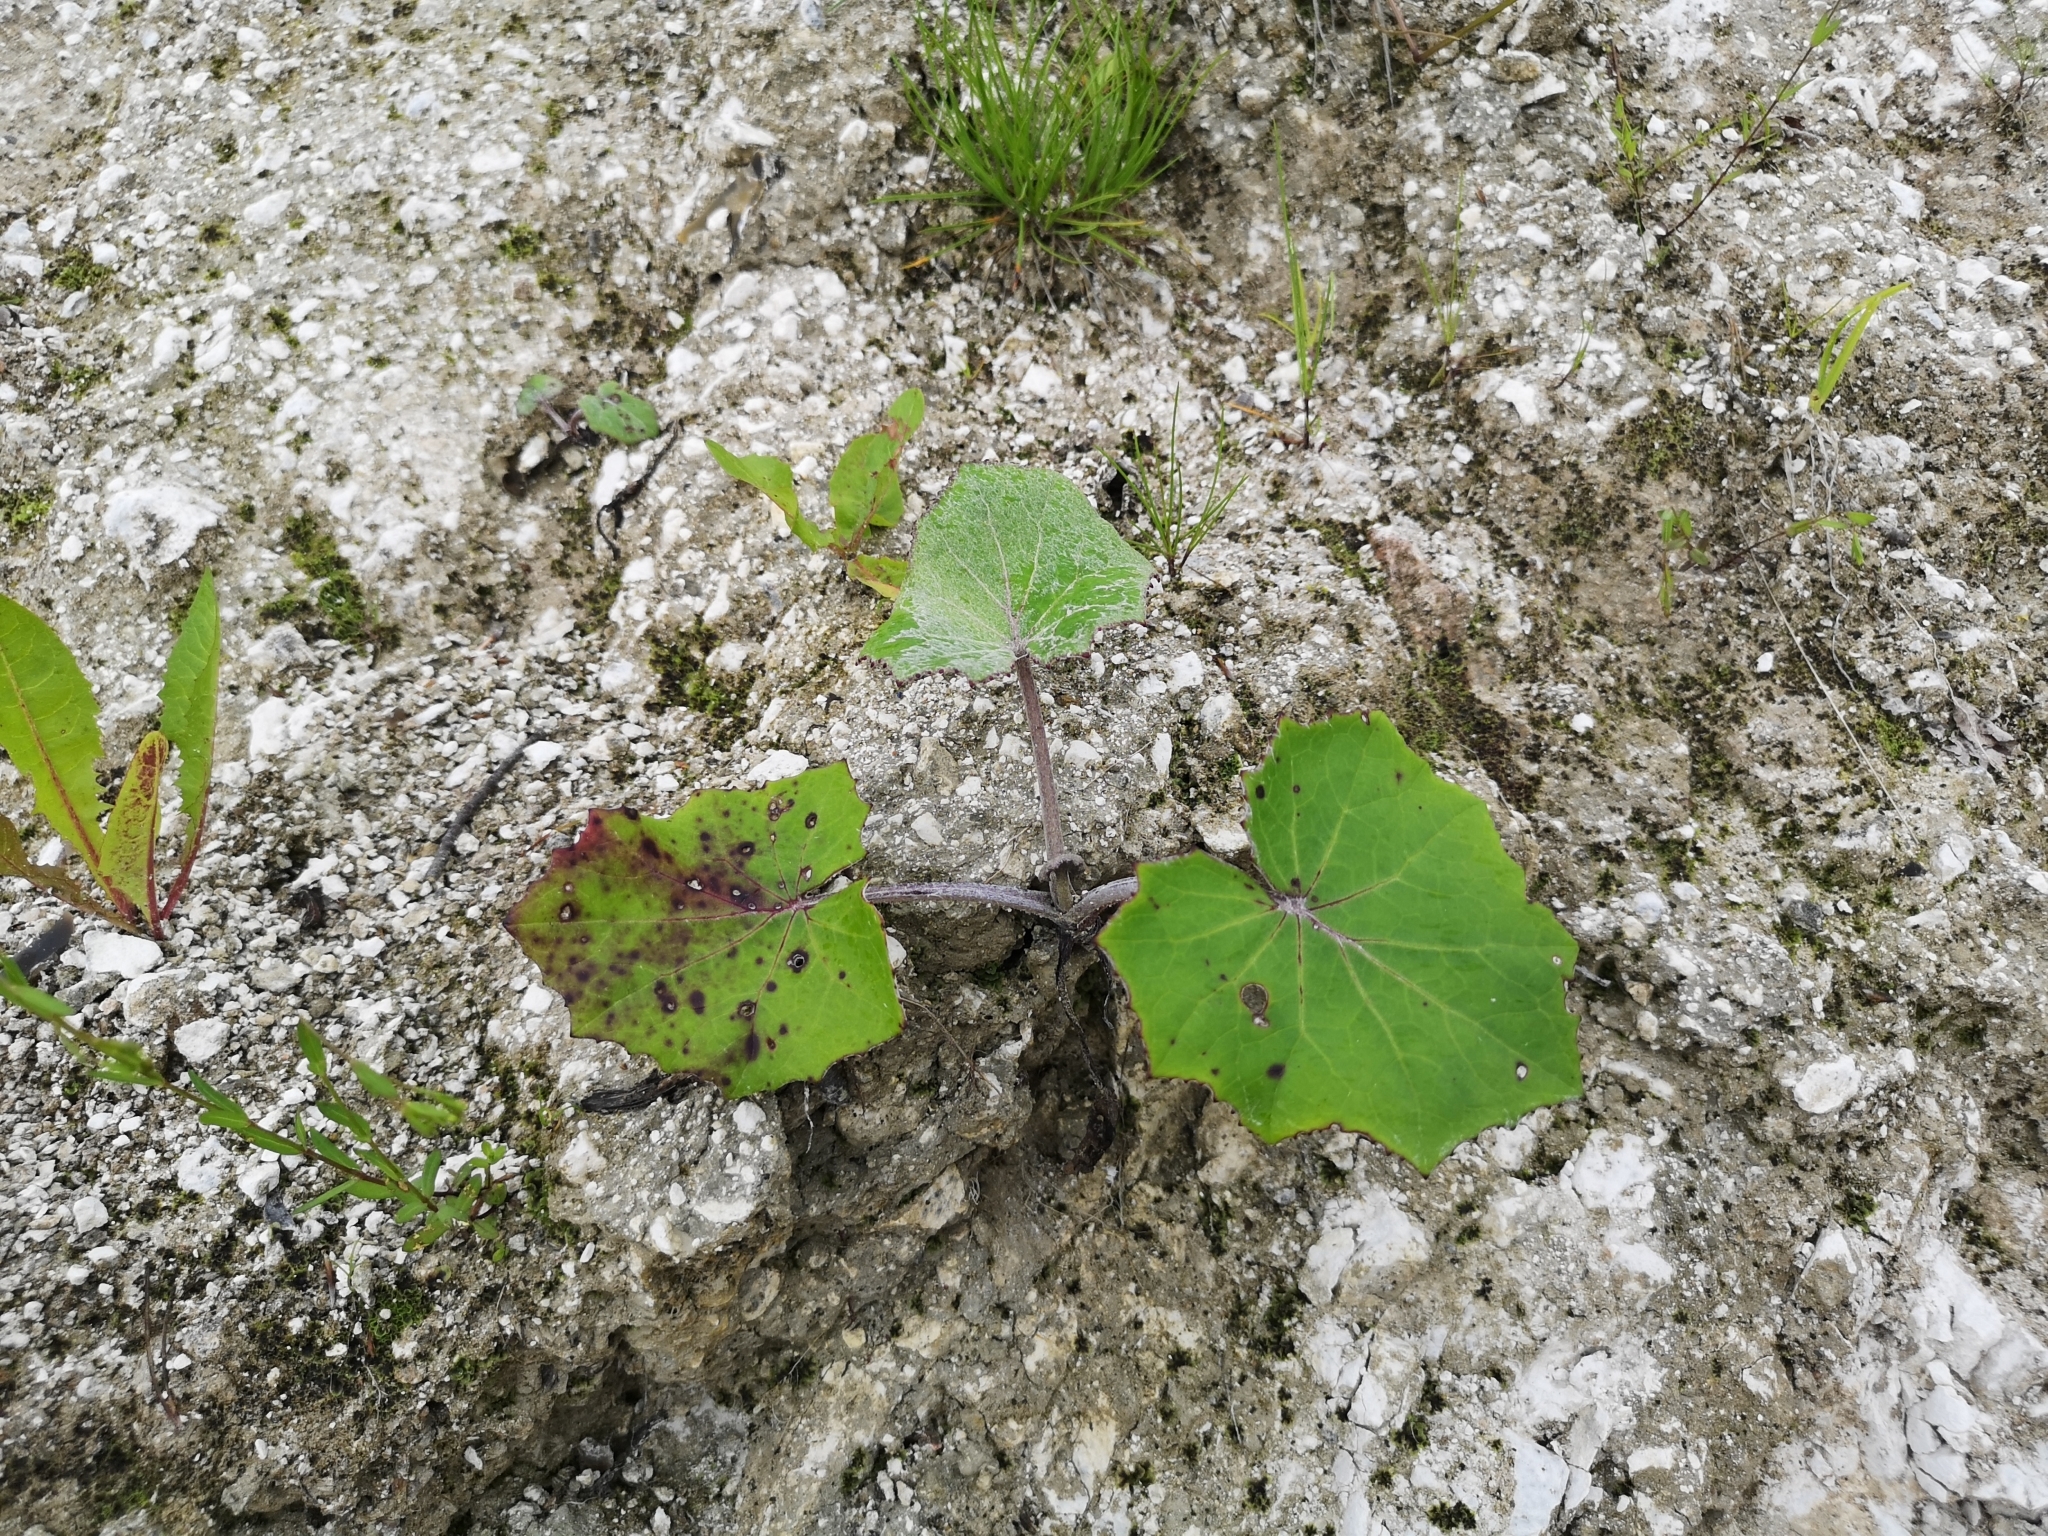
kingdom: Plantae
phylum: Tracheophyta
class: Magnoliopsida
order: Asterales
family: Asteraceae
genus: Tussilago
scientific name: Tussilago farfara
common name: Coltsfoot
